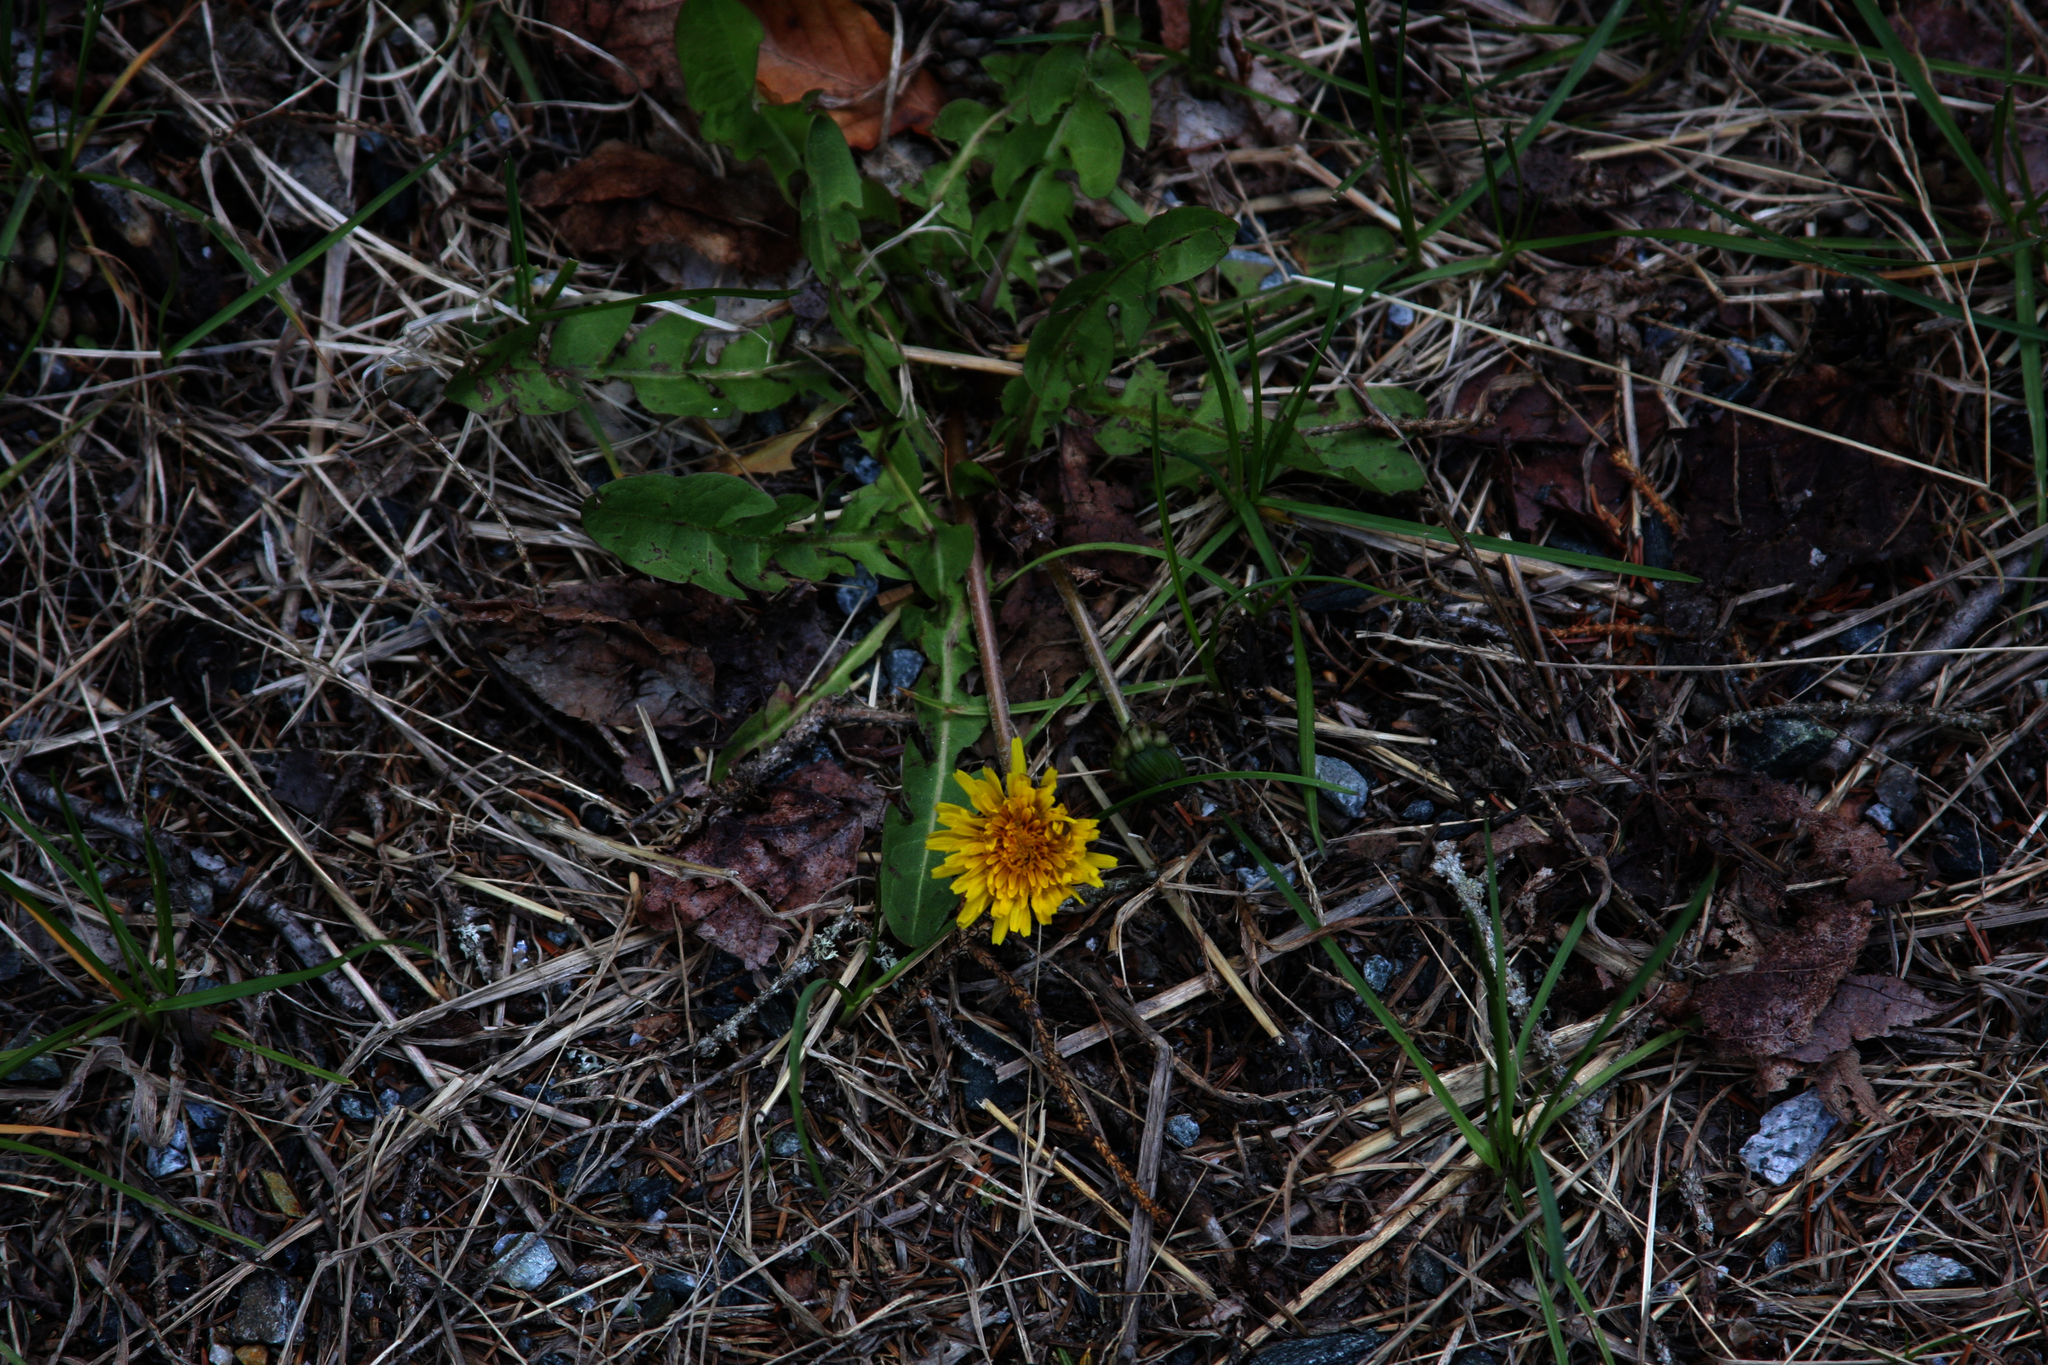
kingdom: Plantae
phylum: Tracheophyta
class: Magnoliopsida
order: Asterales
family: Asteraceae
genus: Taraxacum
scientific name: Taraxacum officinale
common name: Common dandelion
